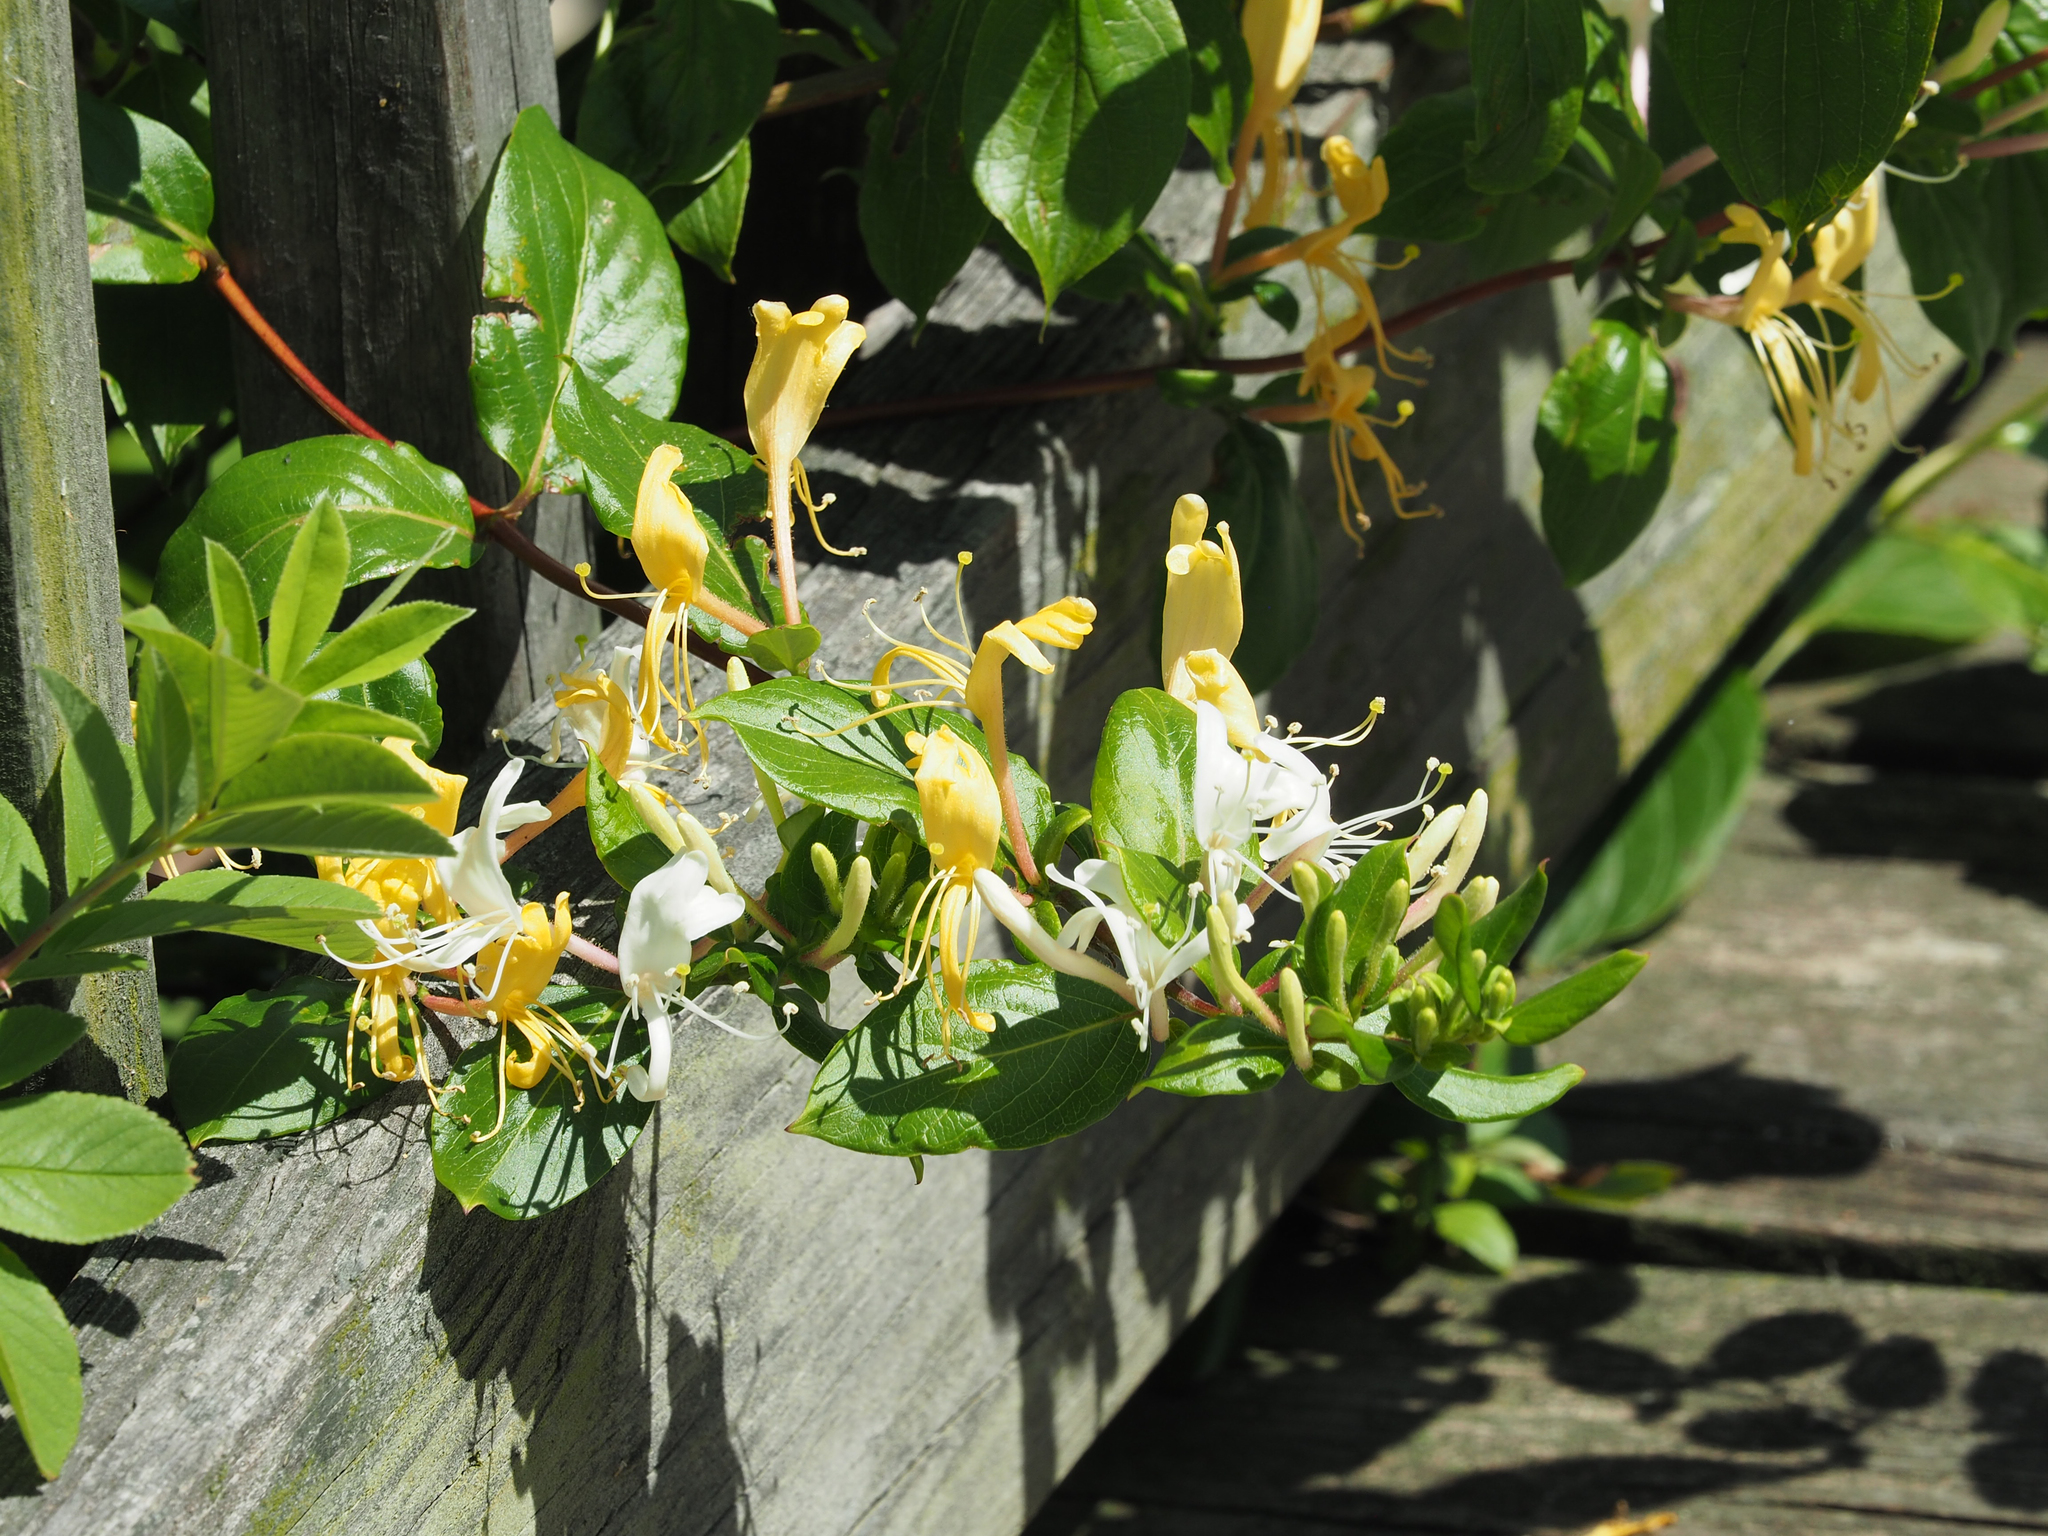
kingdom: Plantae
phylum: Tracheophyta
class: Magnoliopsida
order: Dipsacales
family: Caprifoliaceae
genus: Lonicera
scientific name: Lonicera japonica
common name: Japanese honeysuckle
